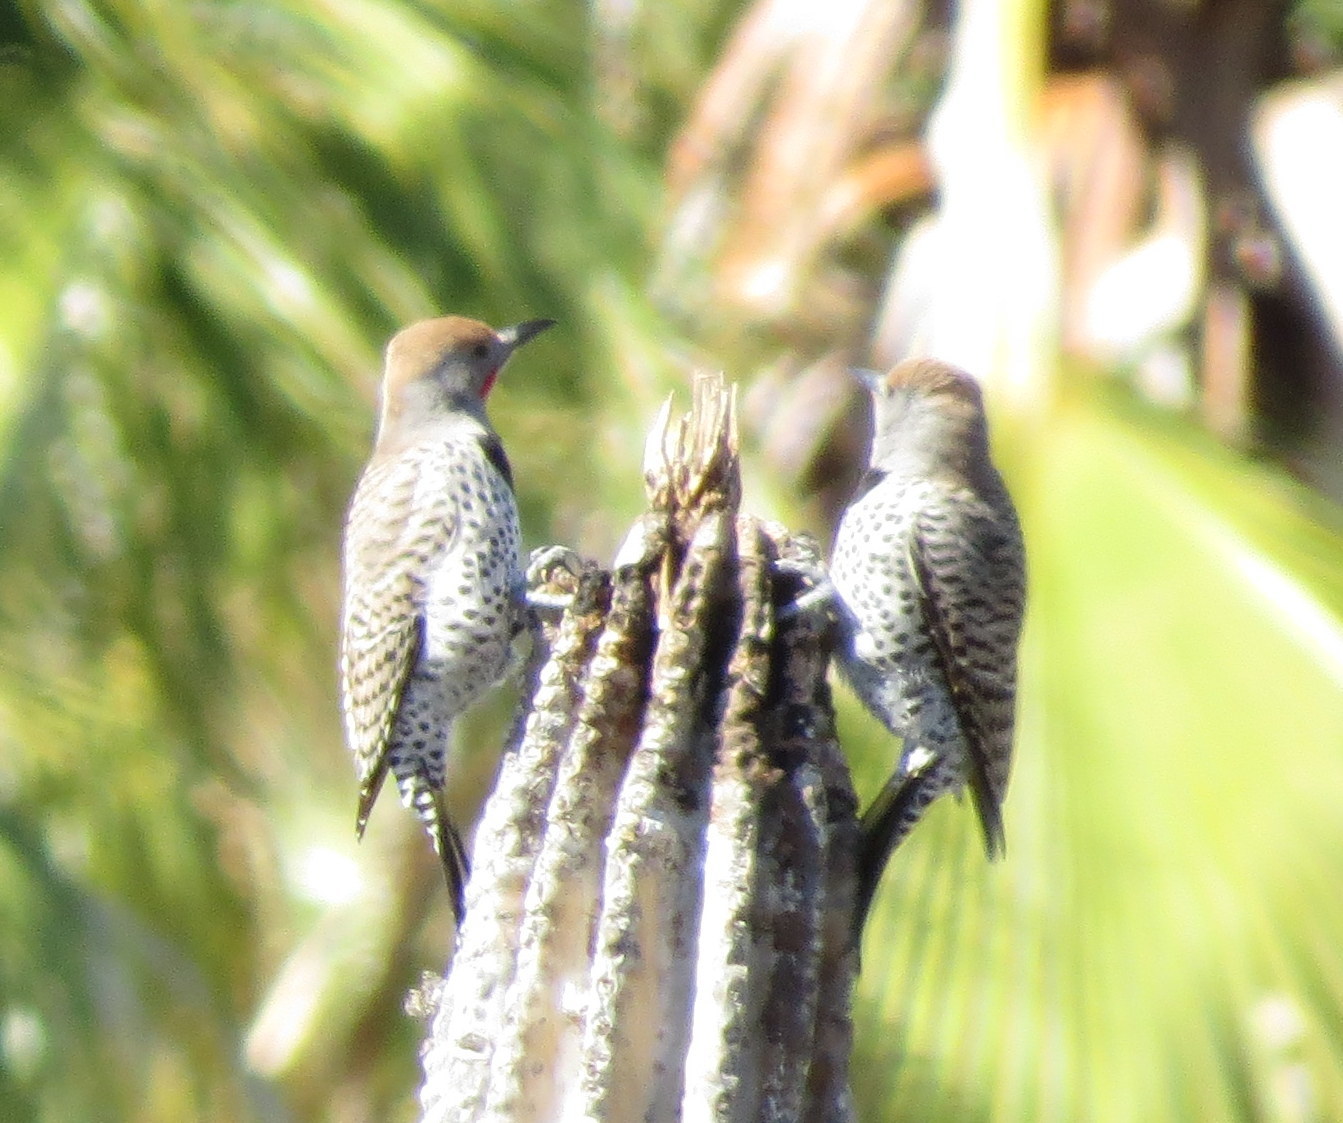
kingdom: Animalia
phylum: Chordata
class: Aves
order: Piciformes
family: Picidae
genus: Colaptes
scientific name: Colaptes chrysoides
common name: Gilded flicker
